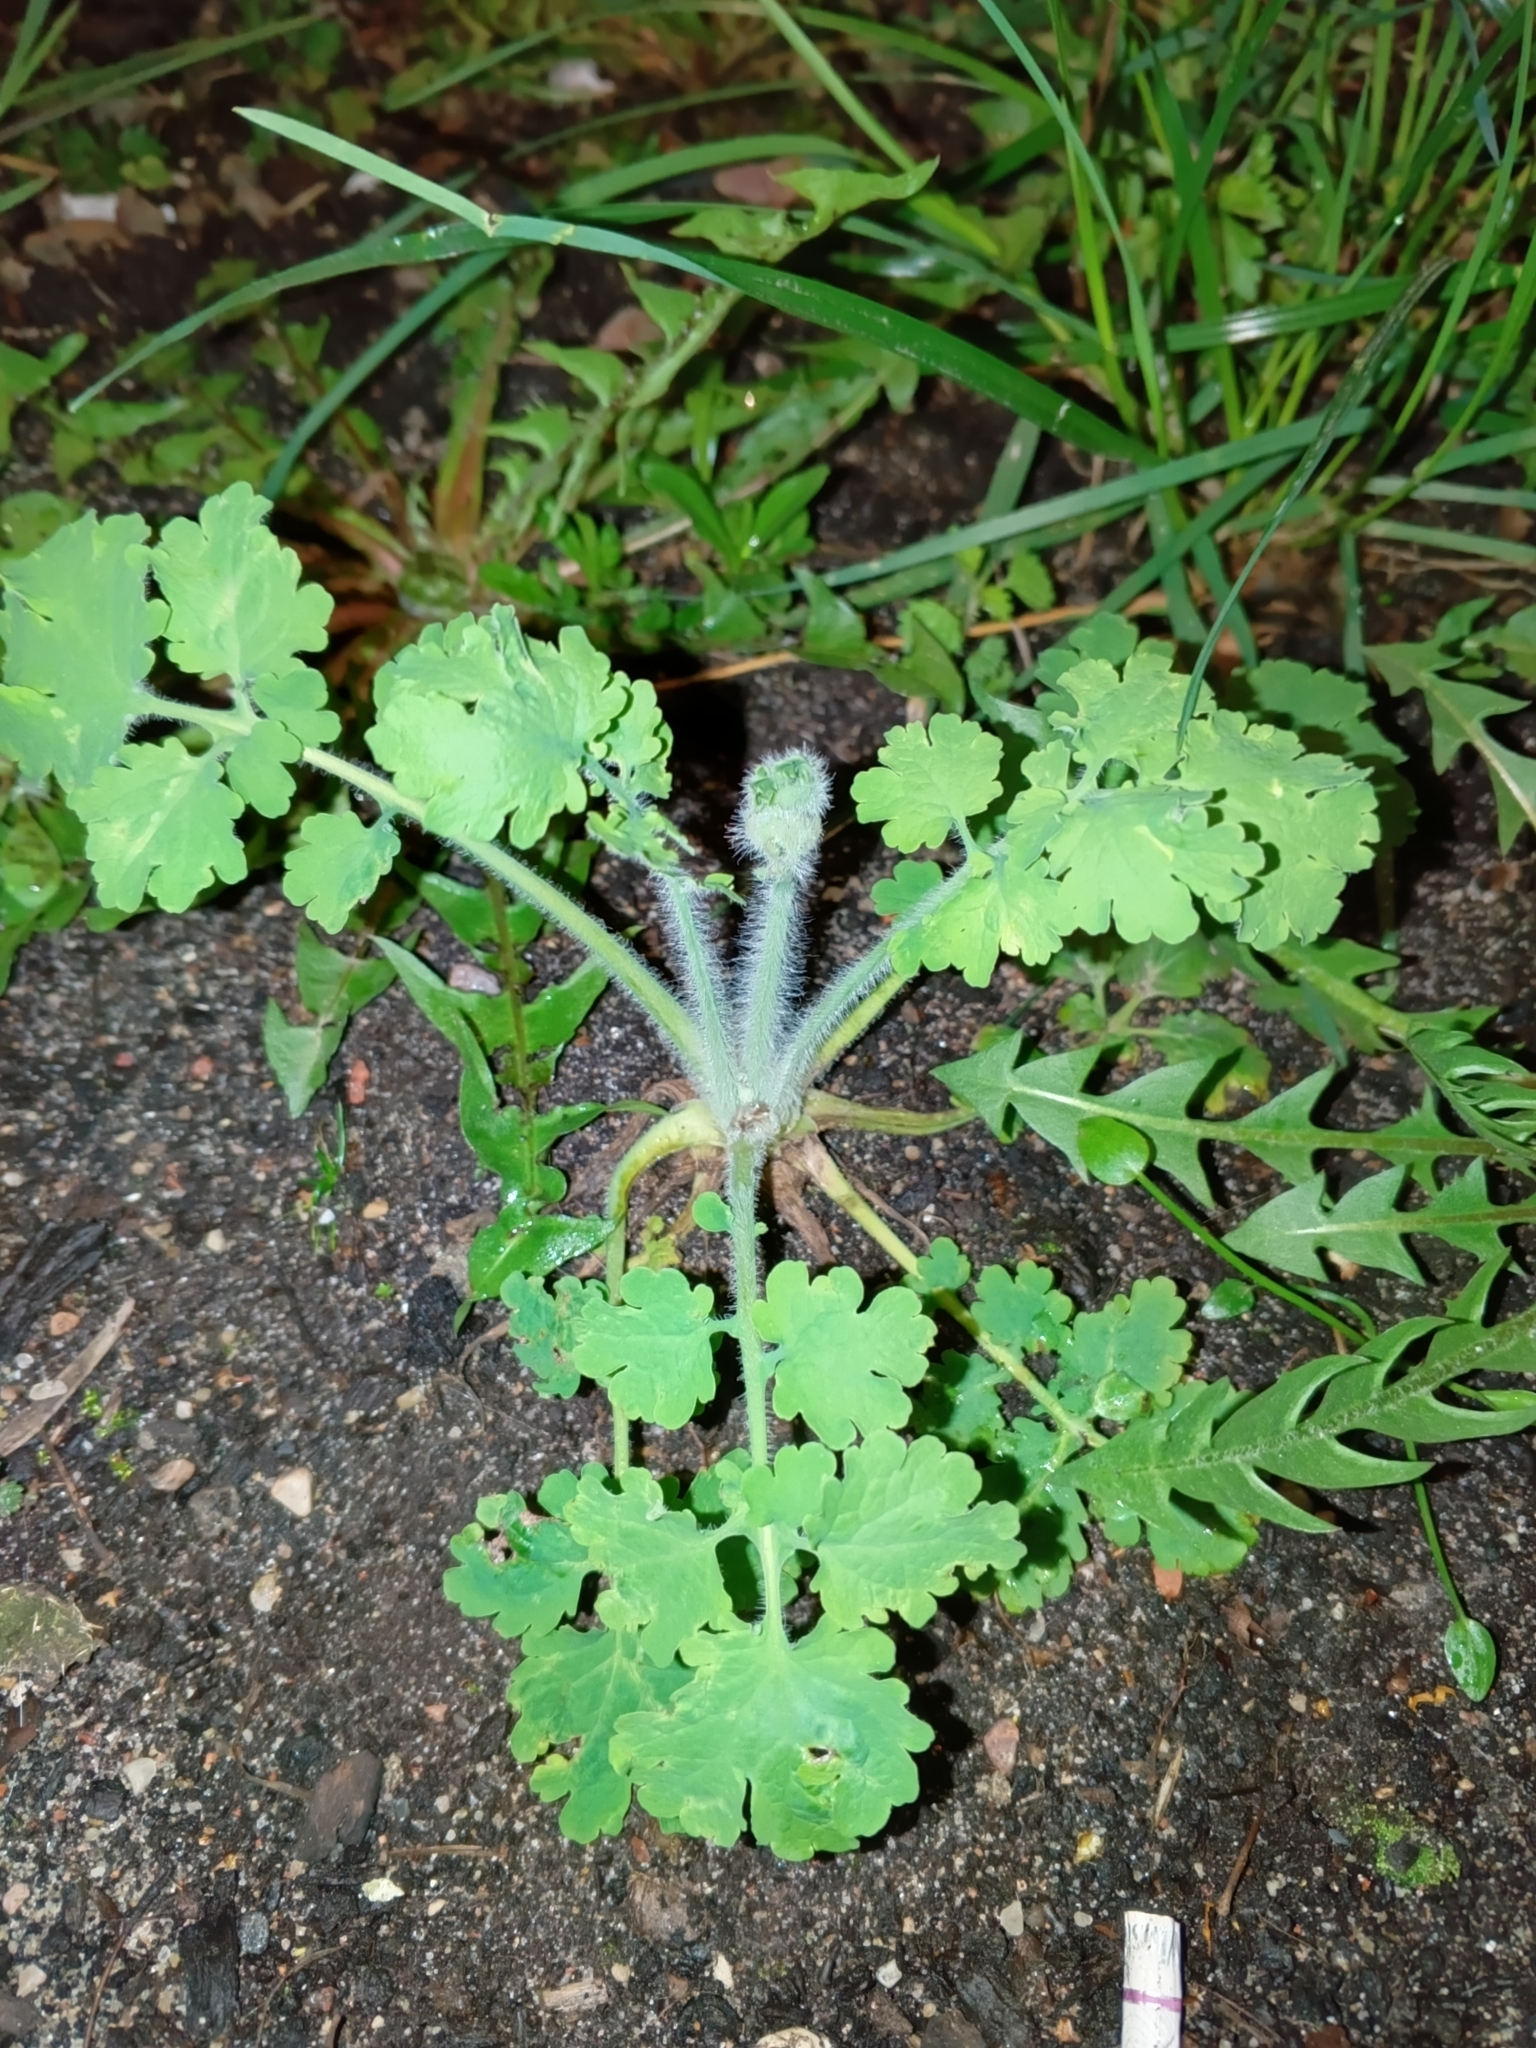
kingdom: Plantae
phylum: Tracheophyta
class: Magnoliopsida
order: Ranunculales
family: Papaveraceae
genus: Chelidonium
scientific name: Chelidonium majus
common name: Greater celandine
